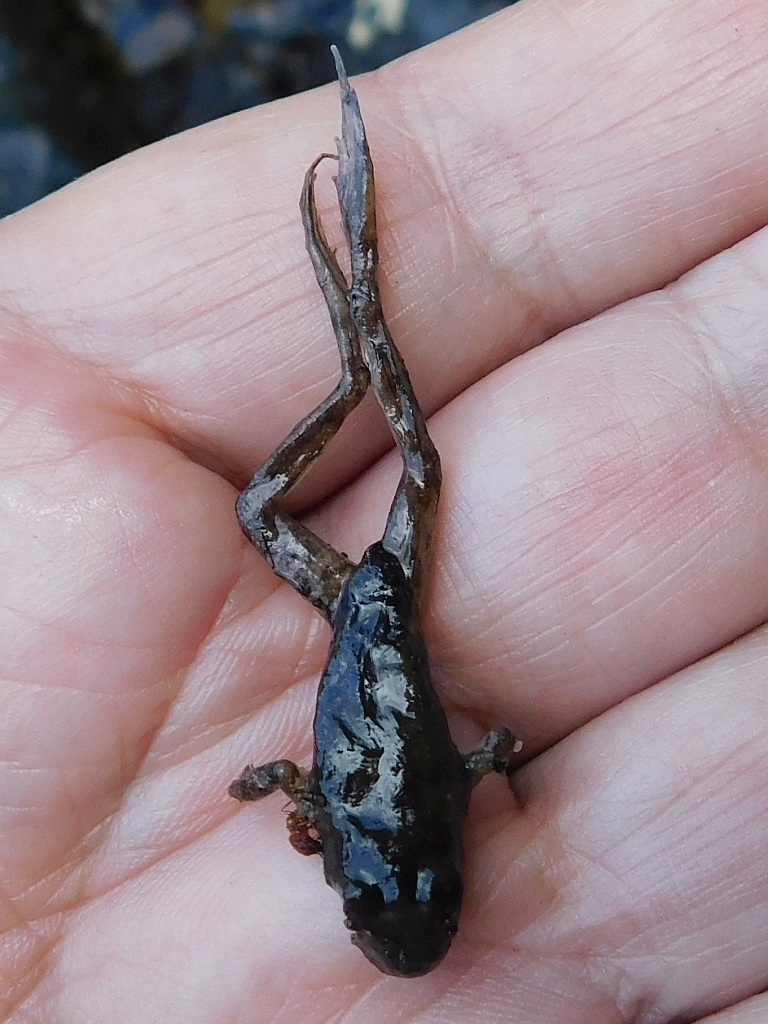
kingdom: Animalia
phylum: Chordata
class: Amphibia
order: Anura
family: Pyxicephalidae
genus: Amietia
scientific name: Amietia fuscigula
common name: Cape rana
